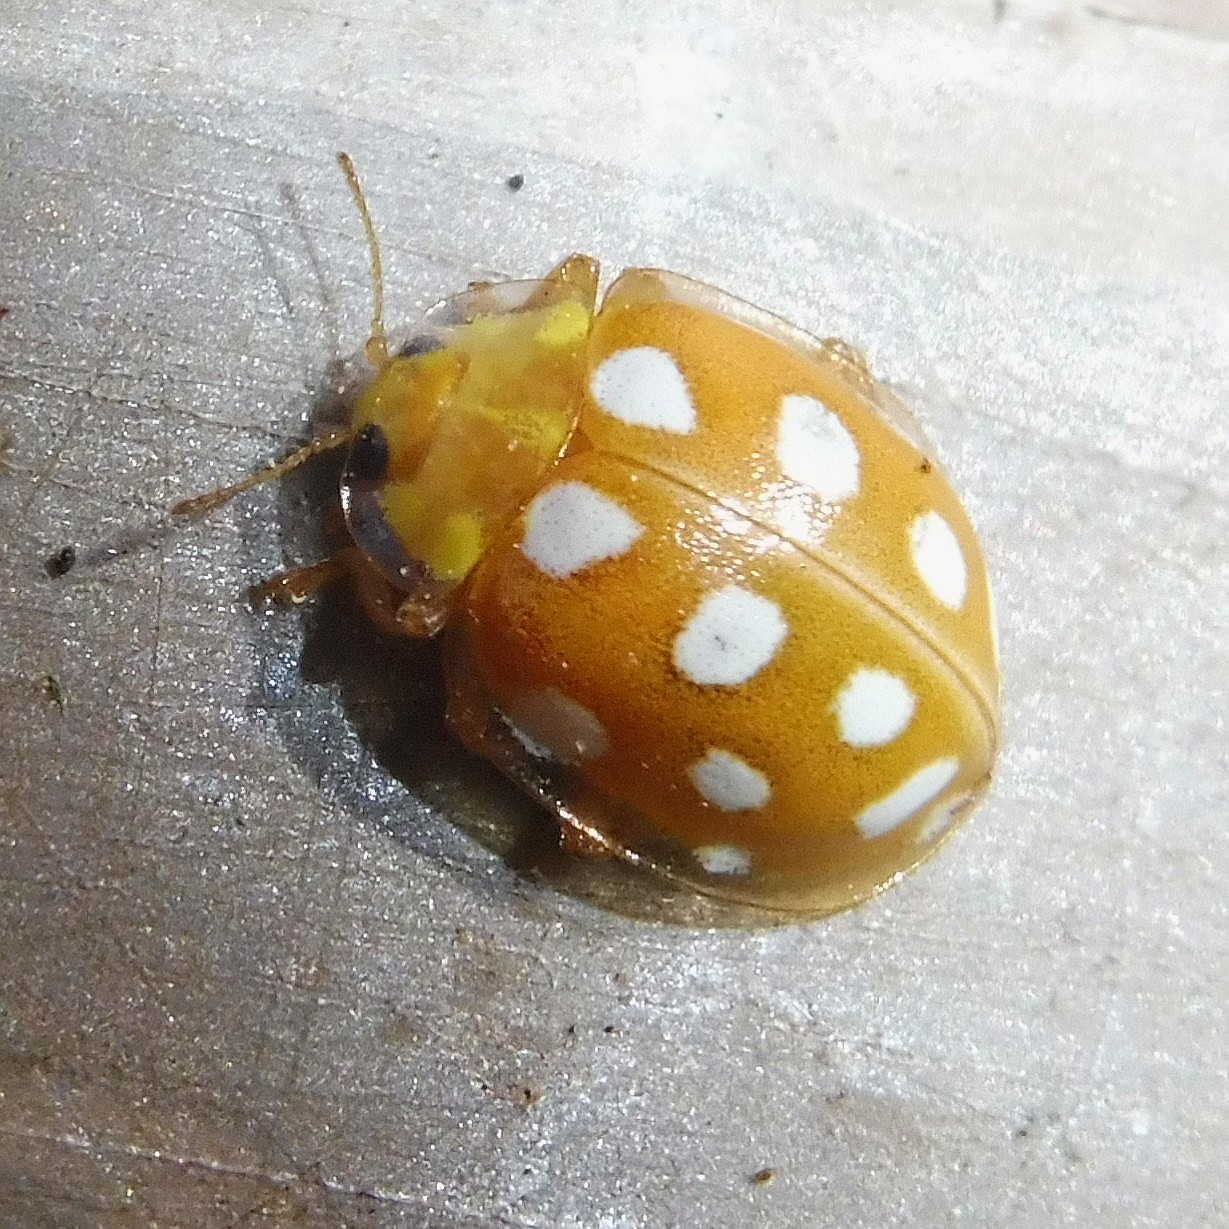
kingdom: Animalia
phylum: Arthropoda
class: Insecta
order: Coleoptera
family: Coccinellidae
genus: Halyzia
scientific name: Halyzia sedecimguttata
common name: Orange ladybird
